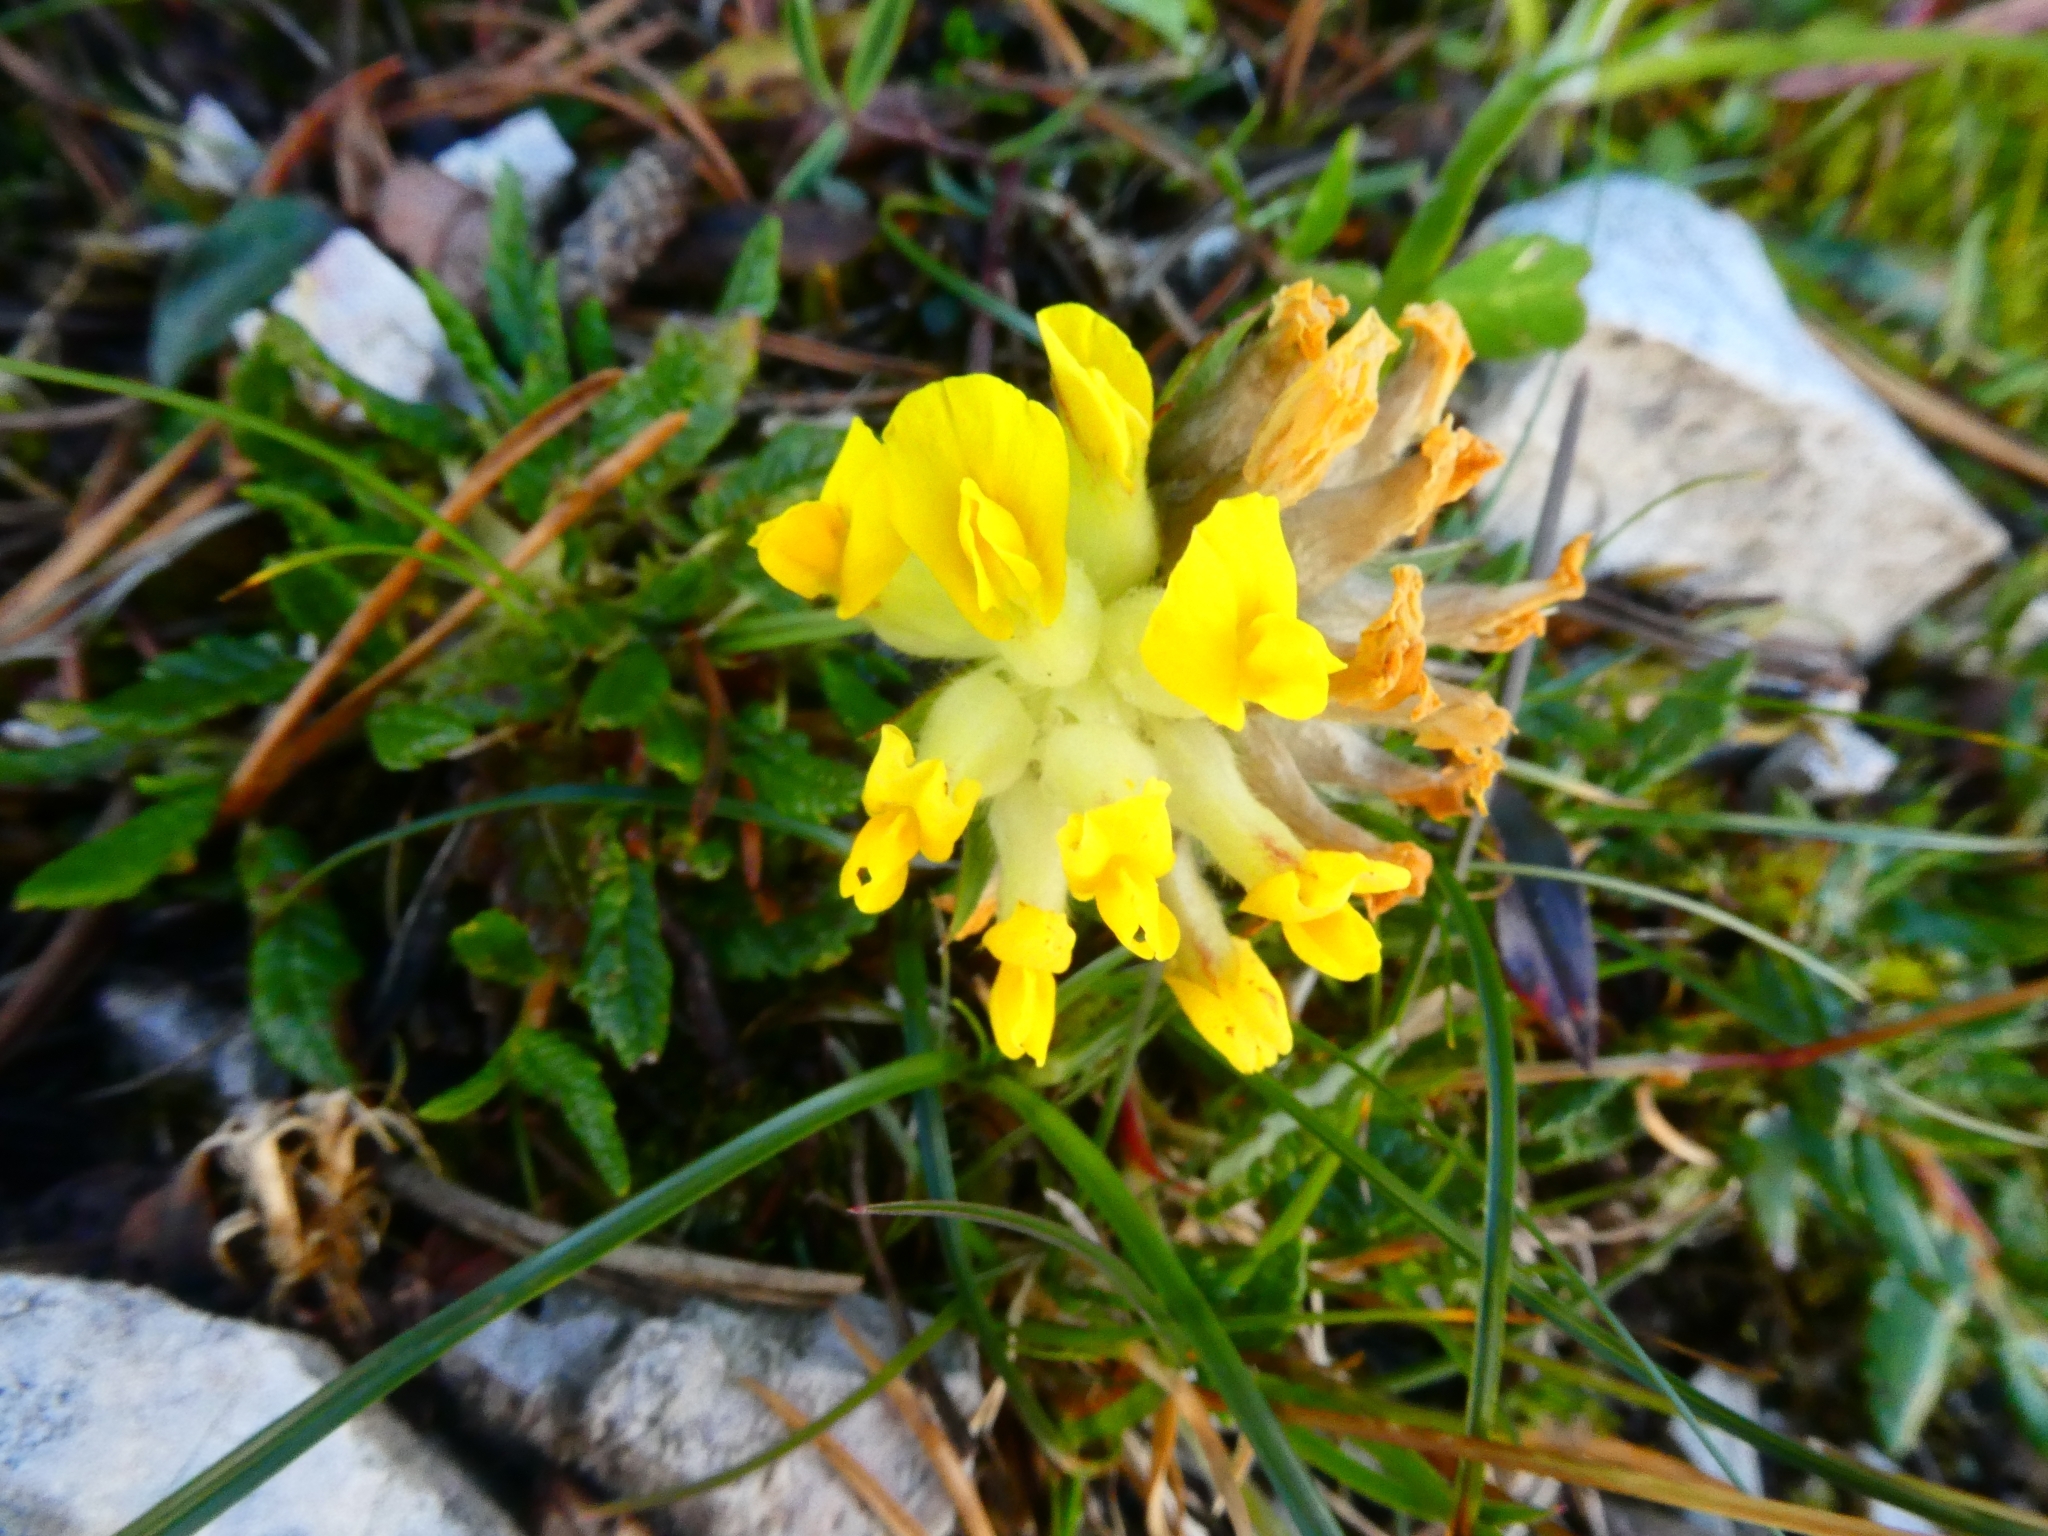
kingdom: Plantae
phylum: Tracheophyta
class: Magnoliopsida
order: Fabales
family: Fabaceae
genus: Anthyllis
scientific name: Anthyllis vulneraria
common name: Kidney vetch
